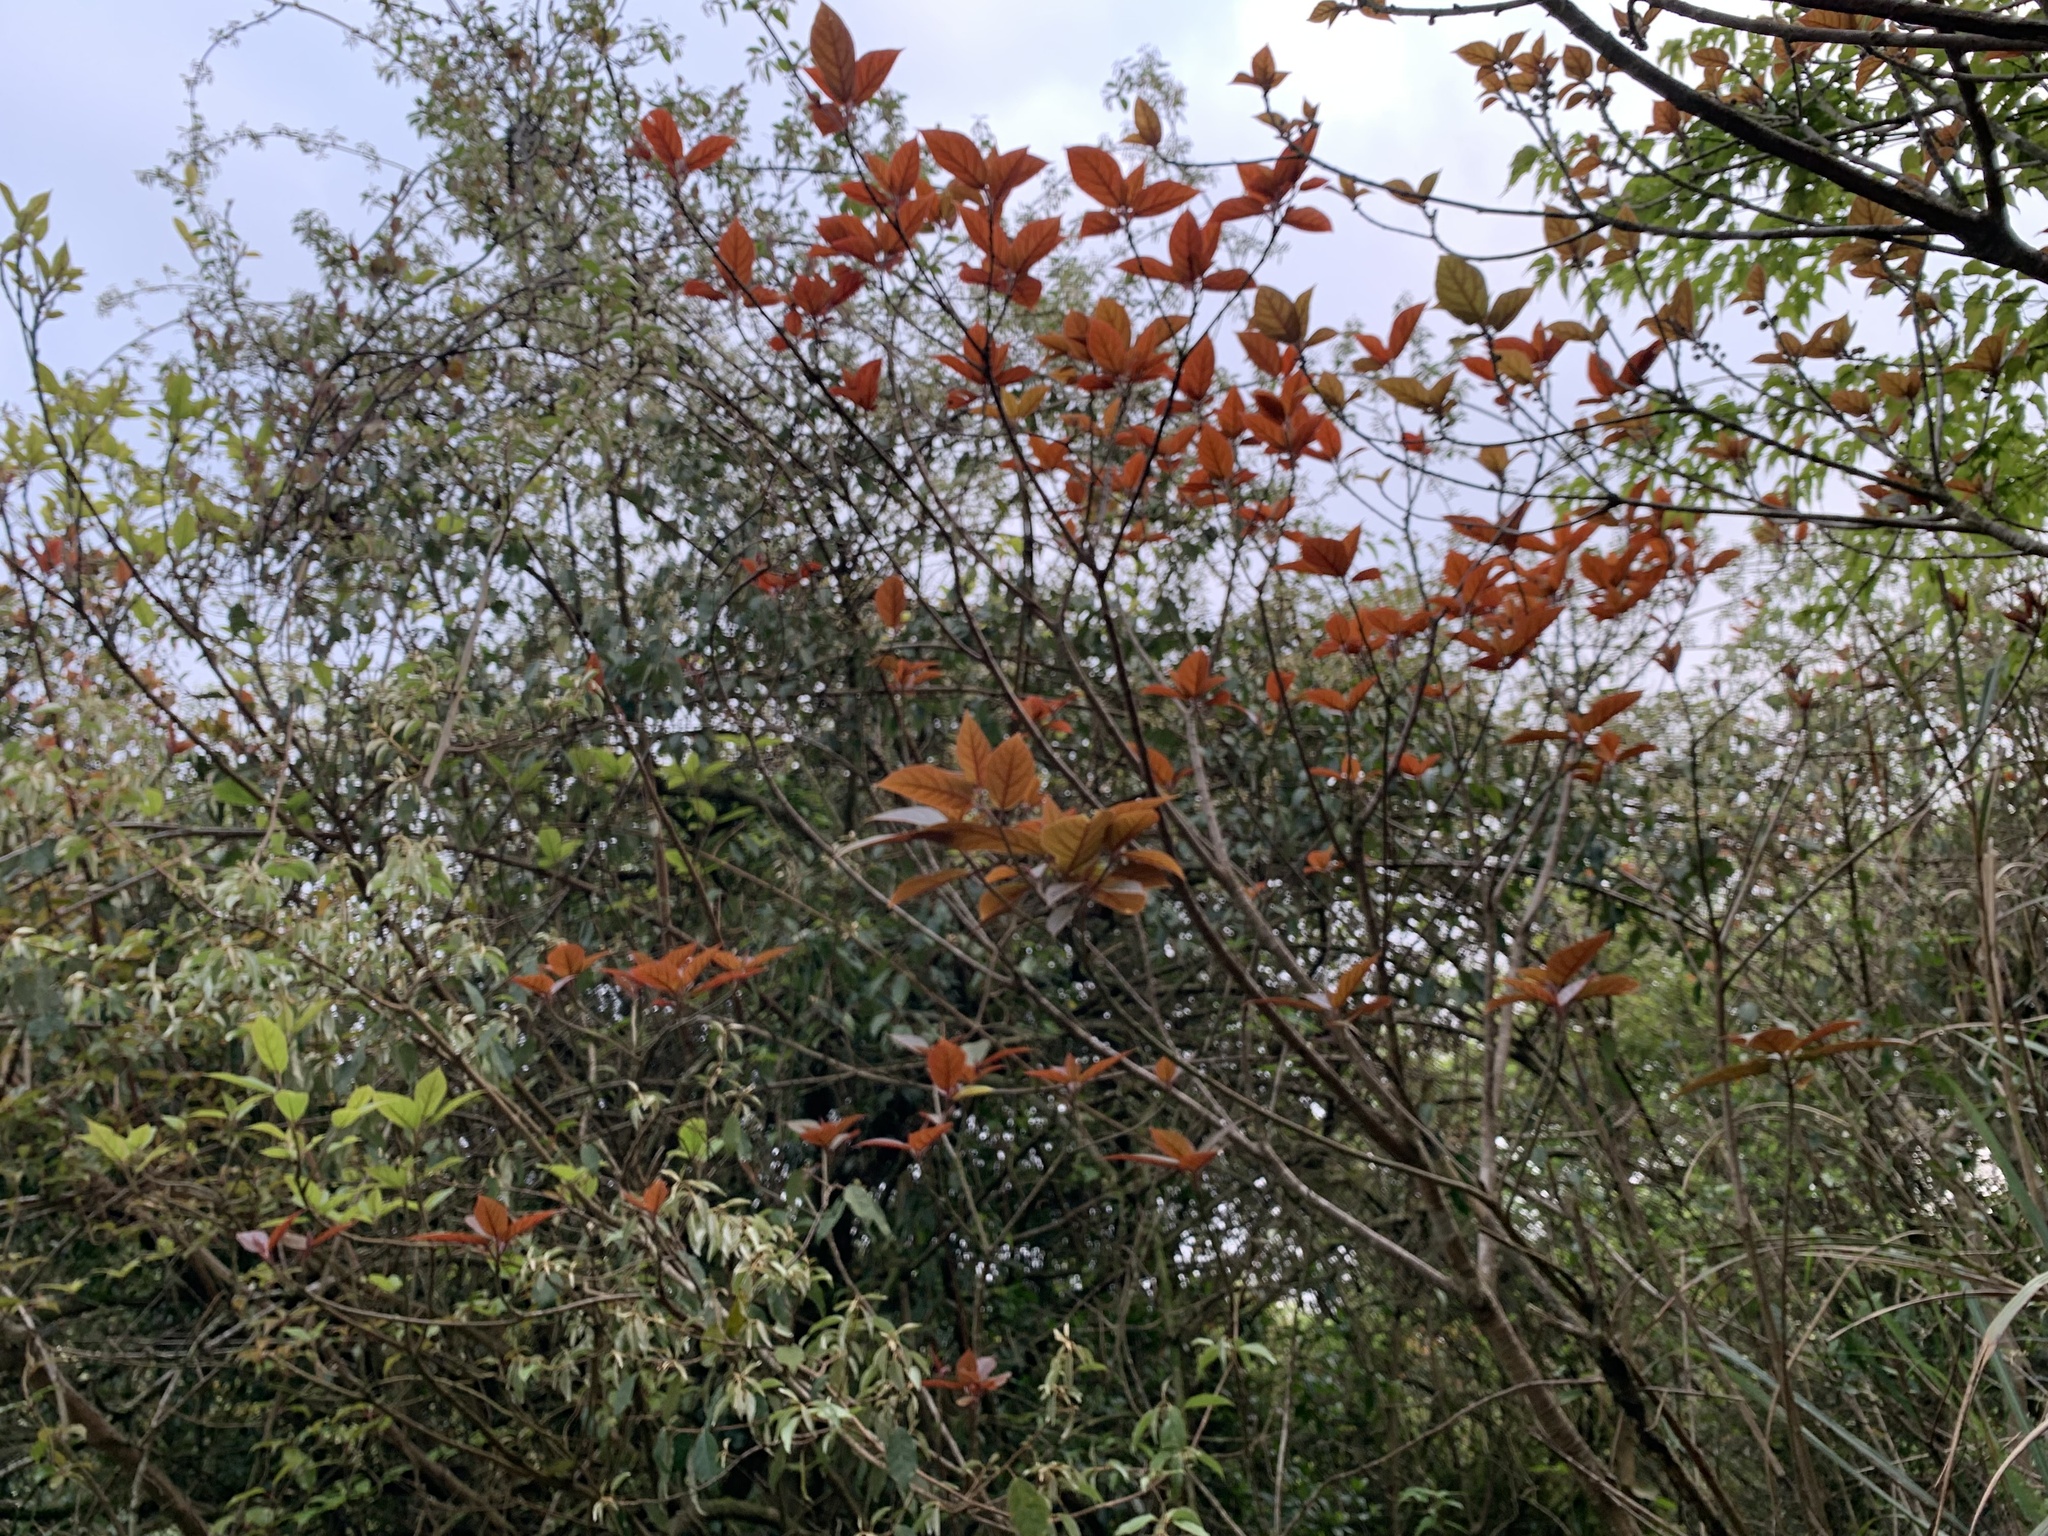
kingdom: Plantae
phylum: Tracheophyta
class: Magnoliopsida
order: Rosales
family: Moraceae
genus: Ficus
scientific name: Ficus erecta
